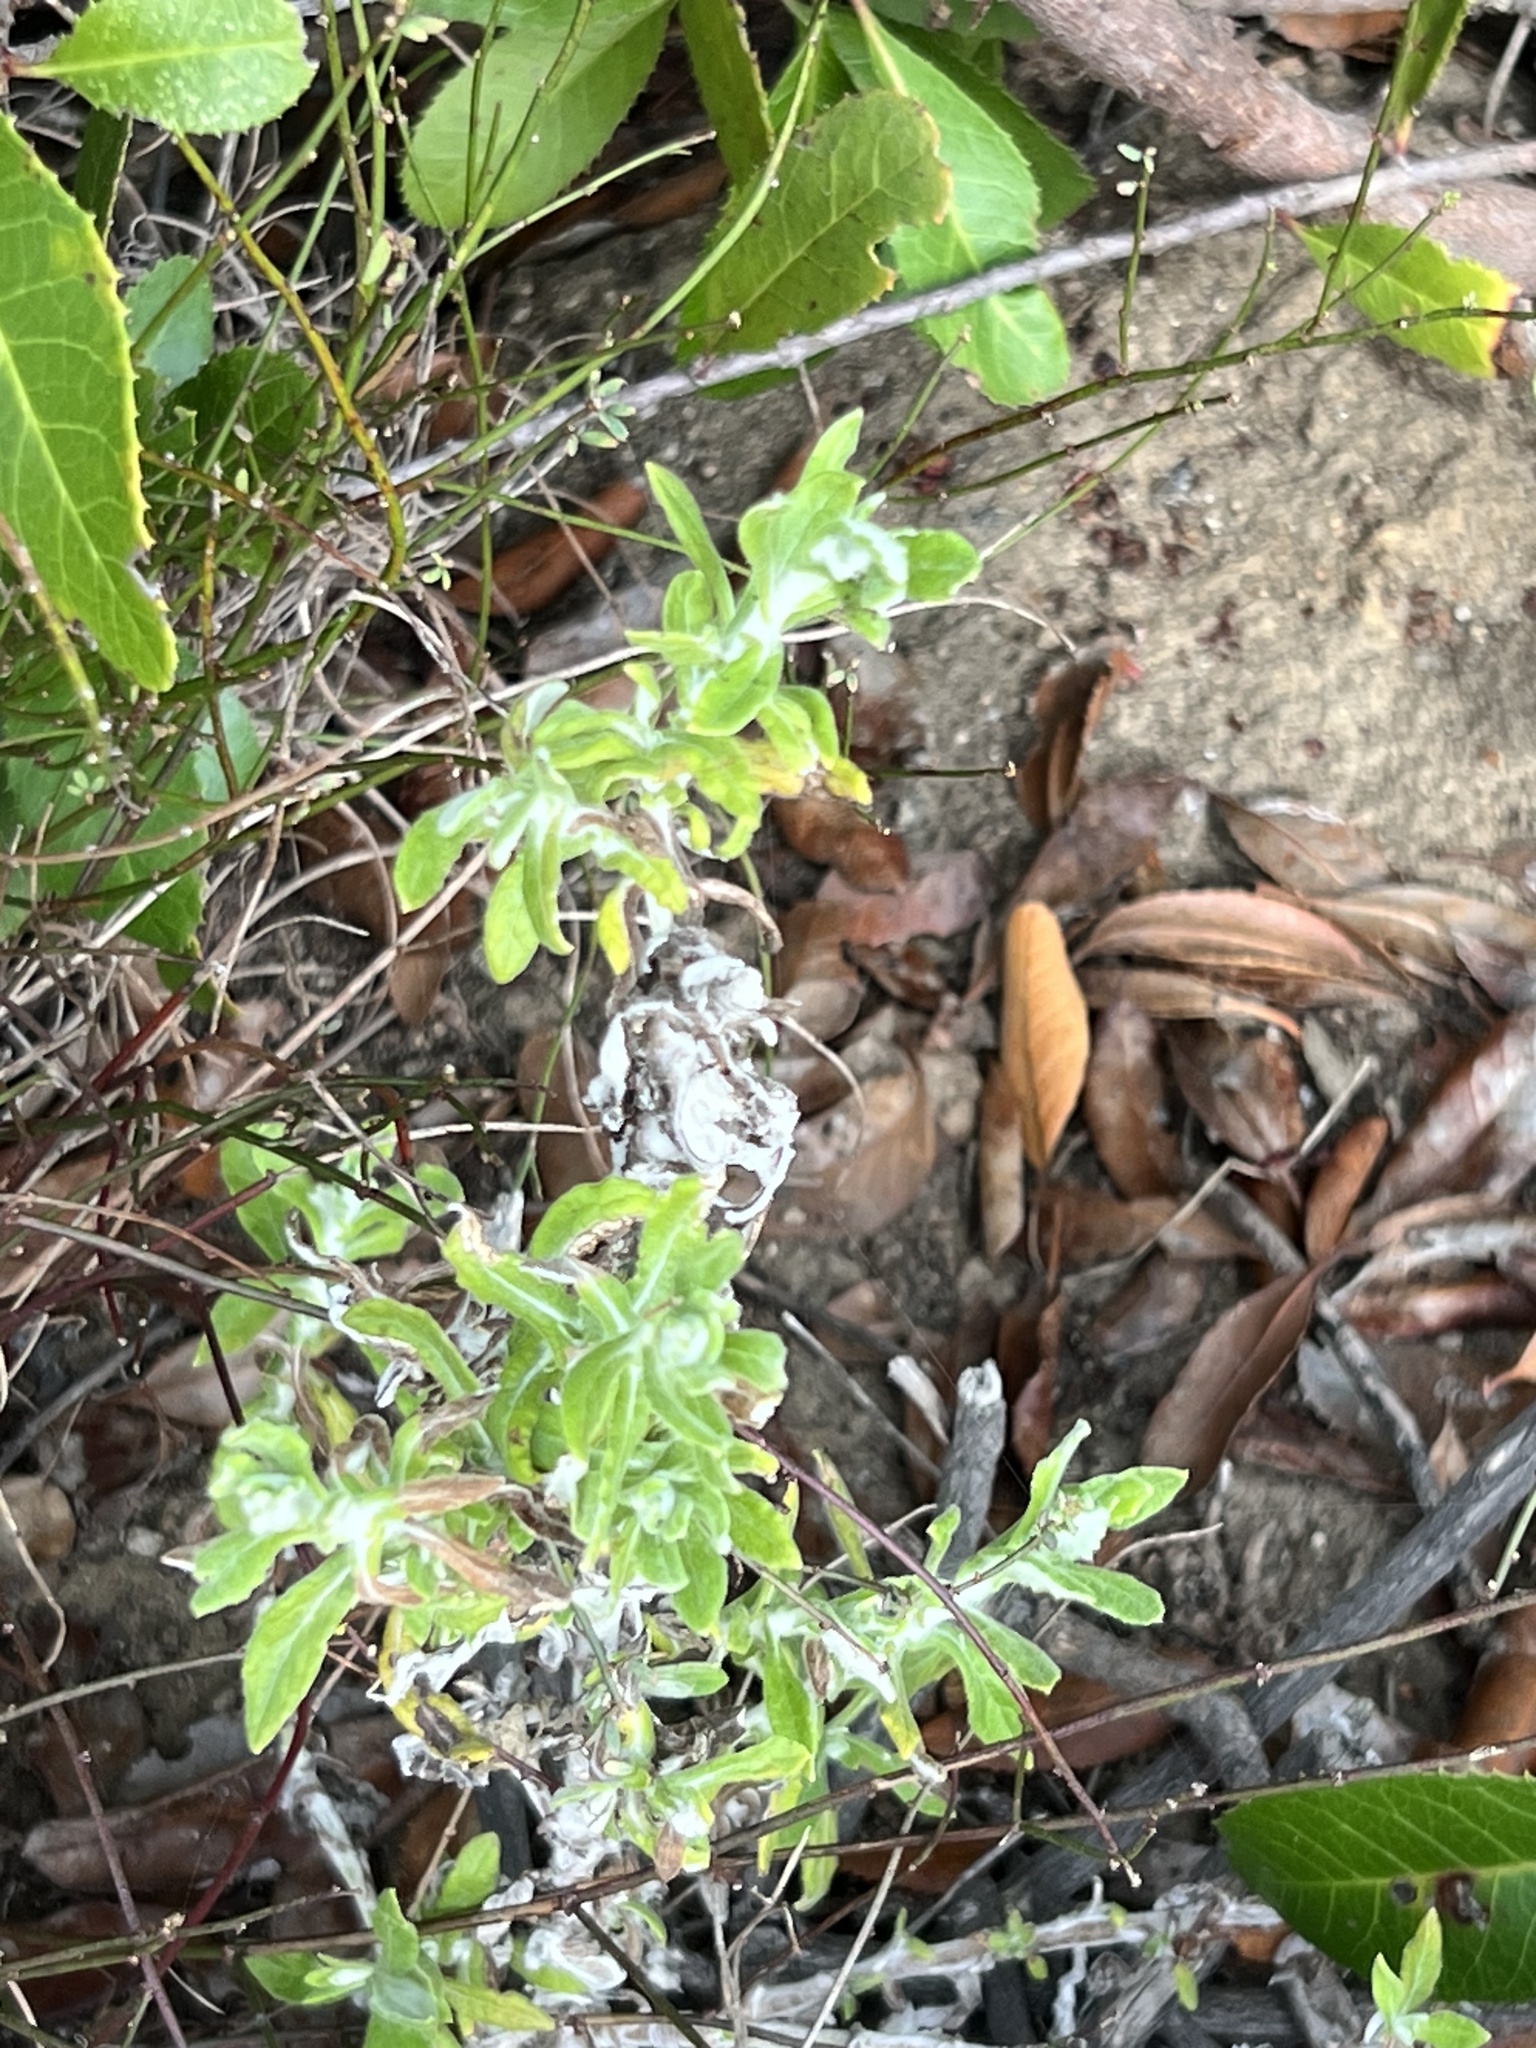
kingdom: Plantae
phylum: Tracheophyta
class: Magnoliopsida
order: Asterales
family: Asteraceae
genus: Pseudognaphalium
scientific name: Pseudognaphalium biolettii
